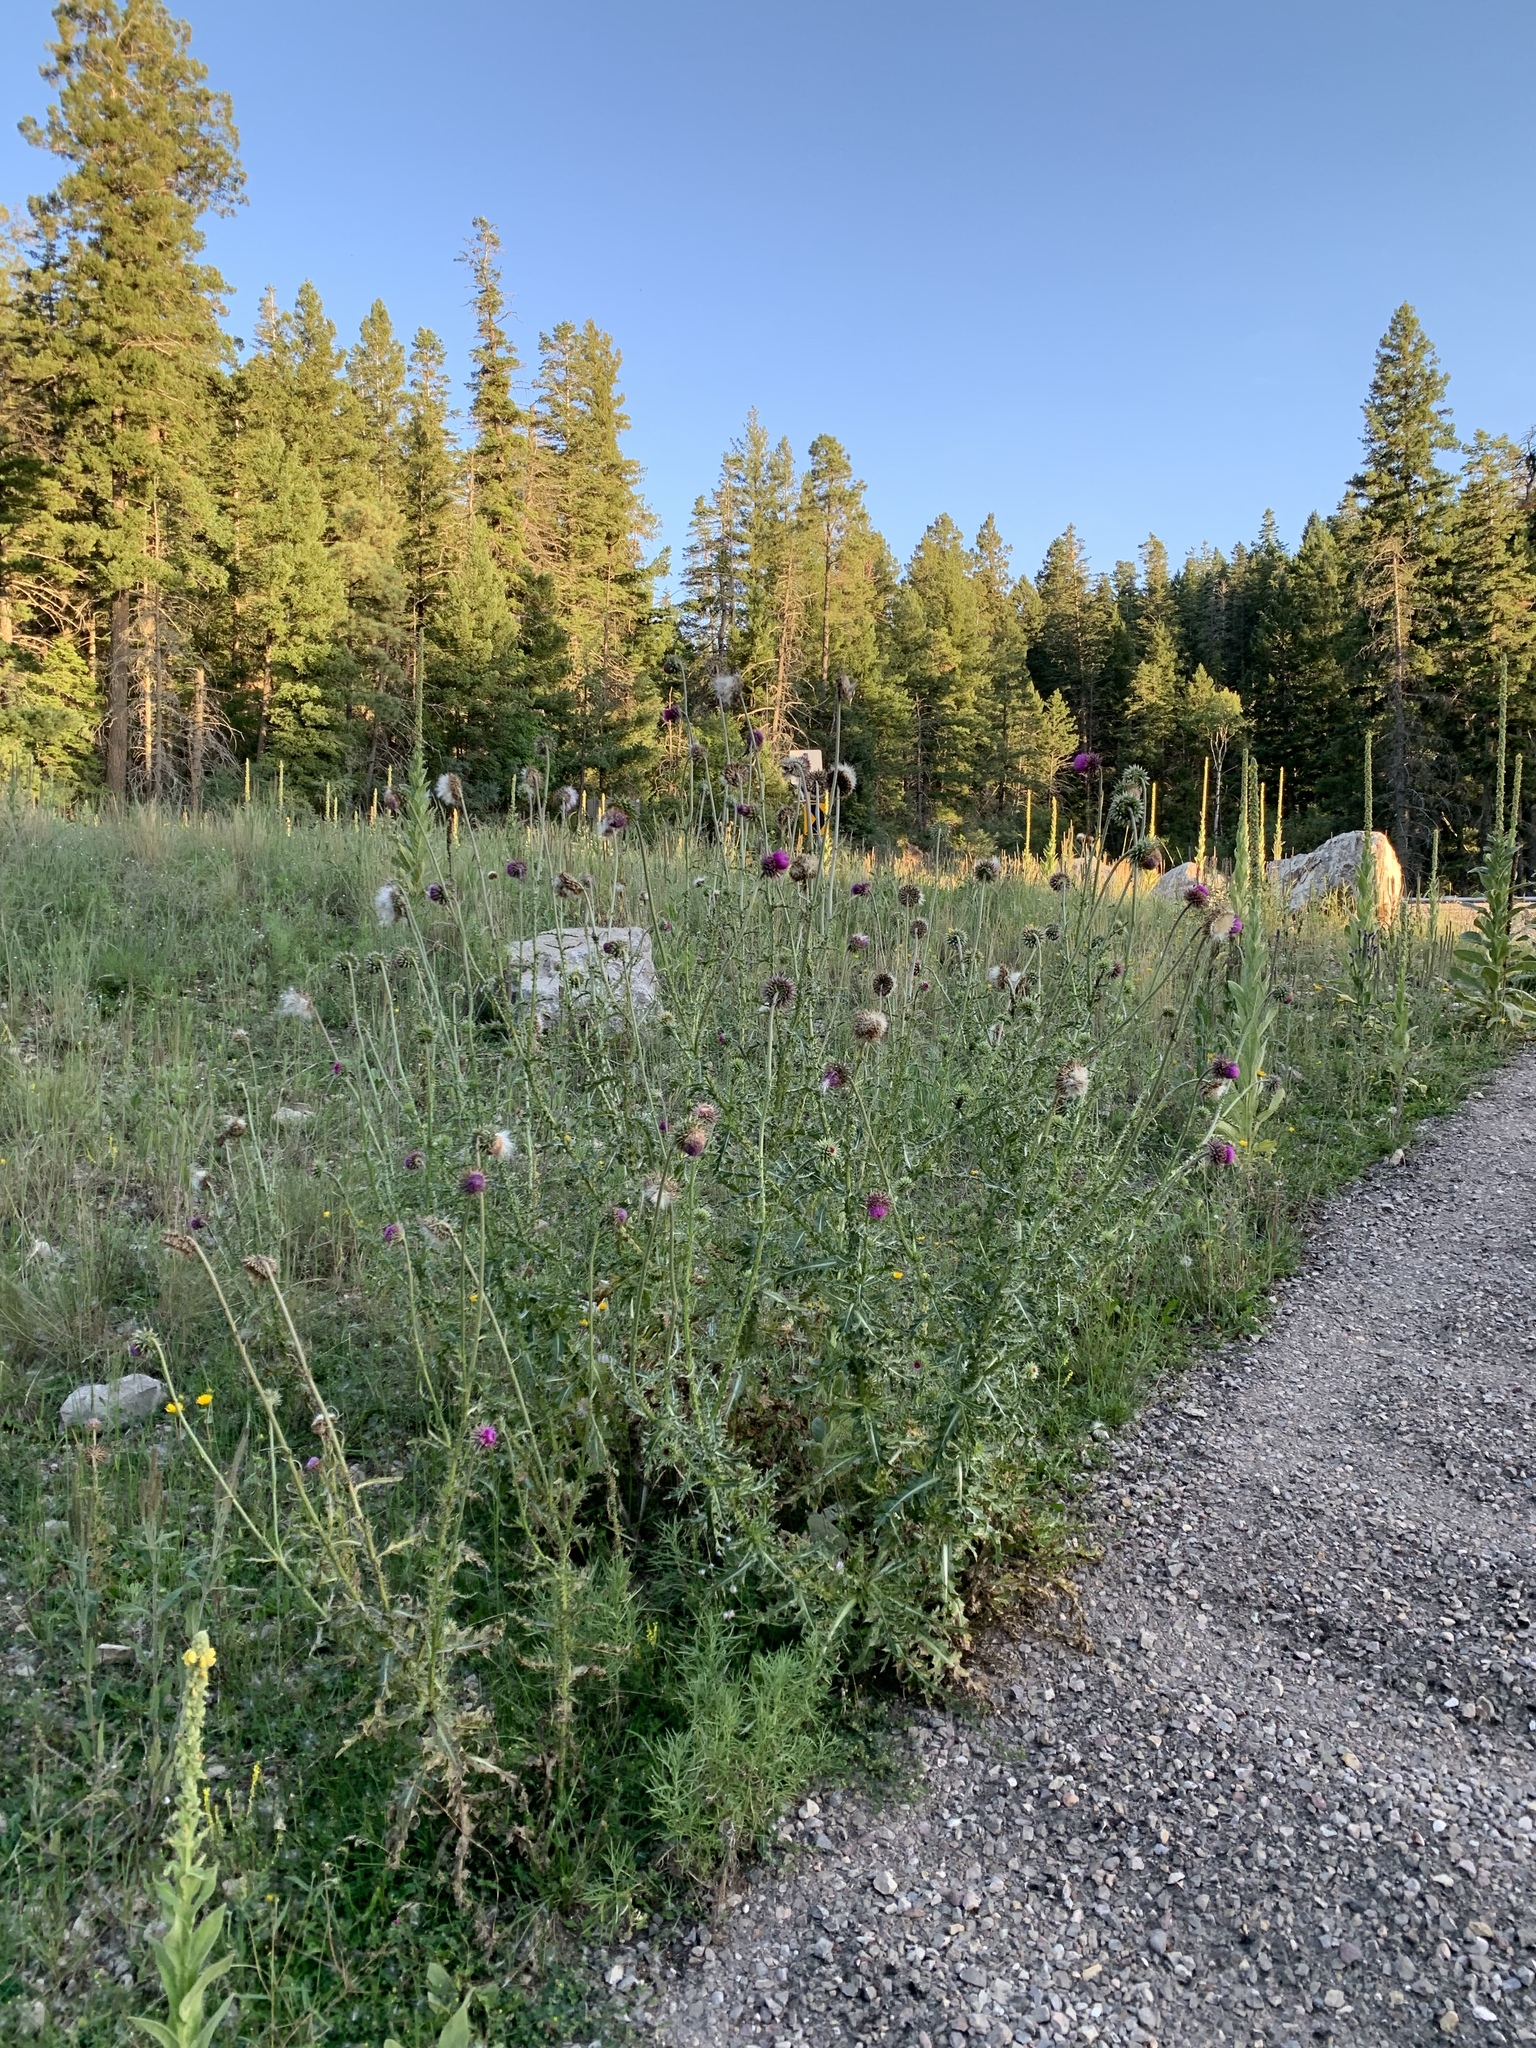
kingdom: Plantae
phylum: Tracheophyta
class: Magnoliopsida
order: Asterales
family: Asteraceae
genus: Carduus
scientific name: Carduus nutans
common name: Musk thistle
